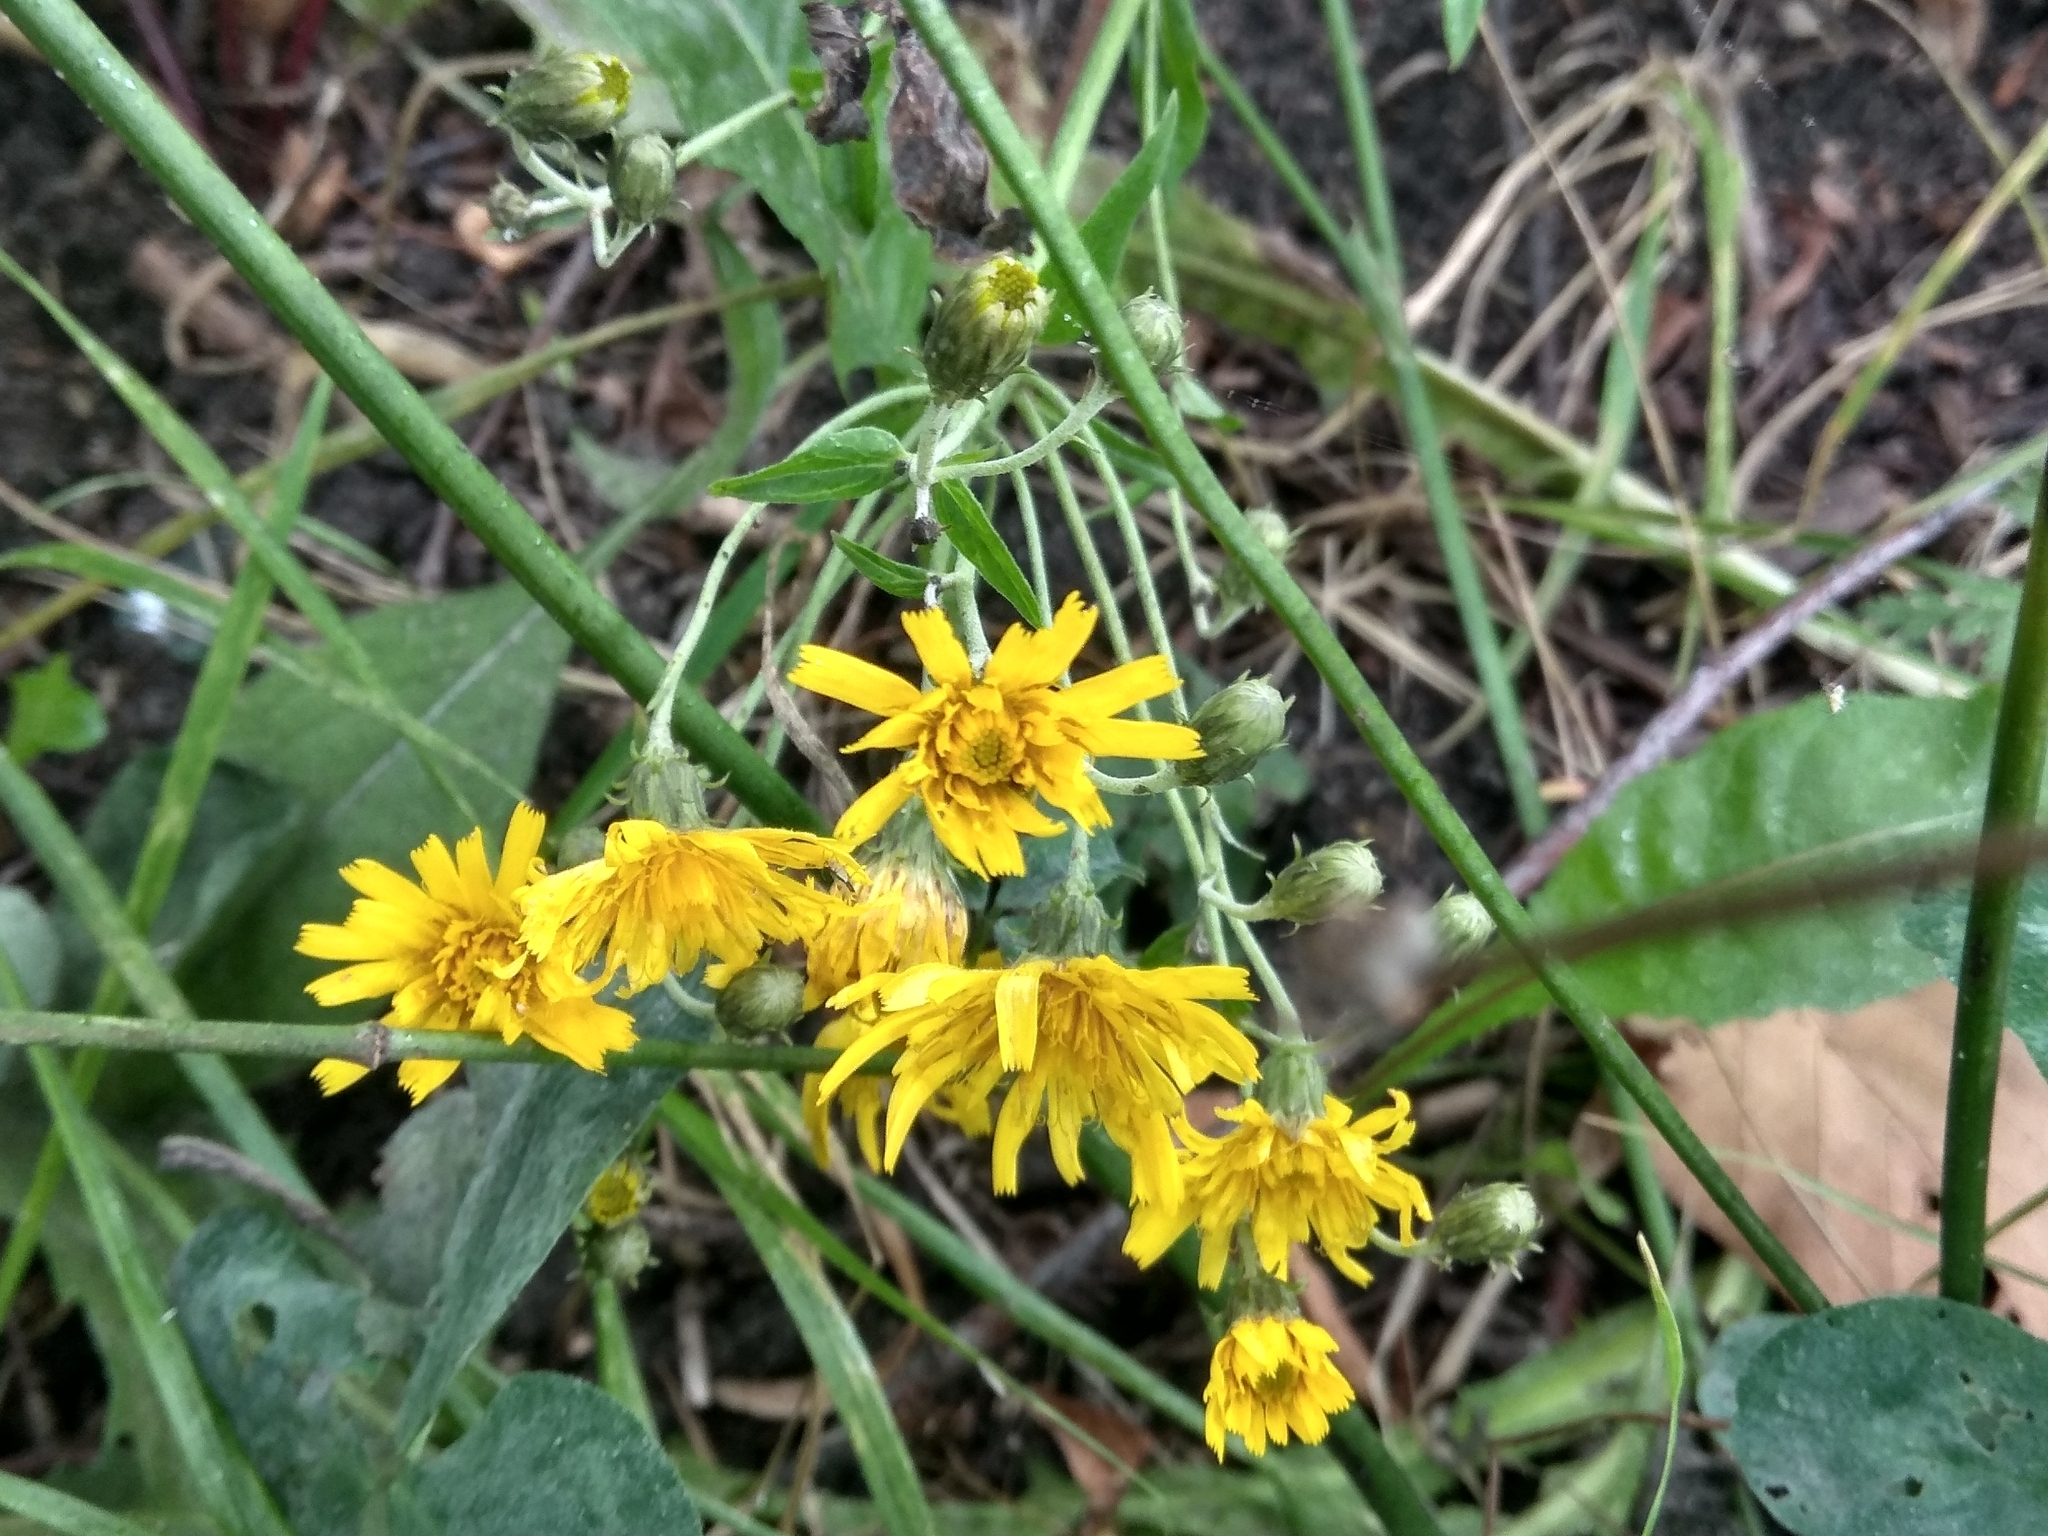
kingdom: Plantae
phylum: Tracheophyta
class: Magnoliopsida
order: Asterales
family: Asteraceae
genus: Hieracium
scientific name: Hieracium umbellatum
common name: Northern hawkweed
